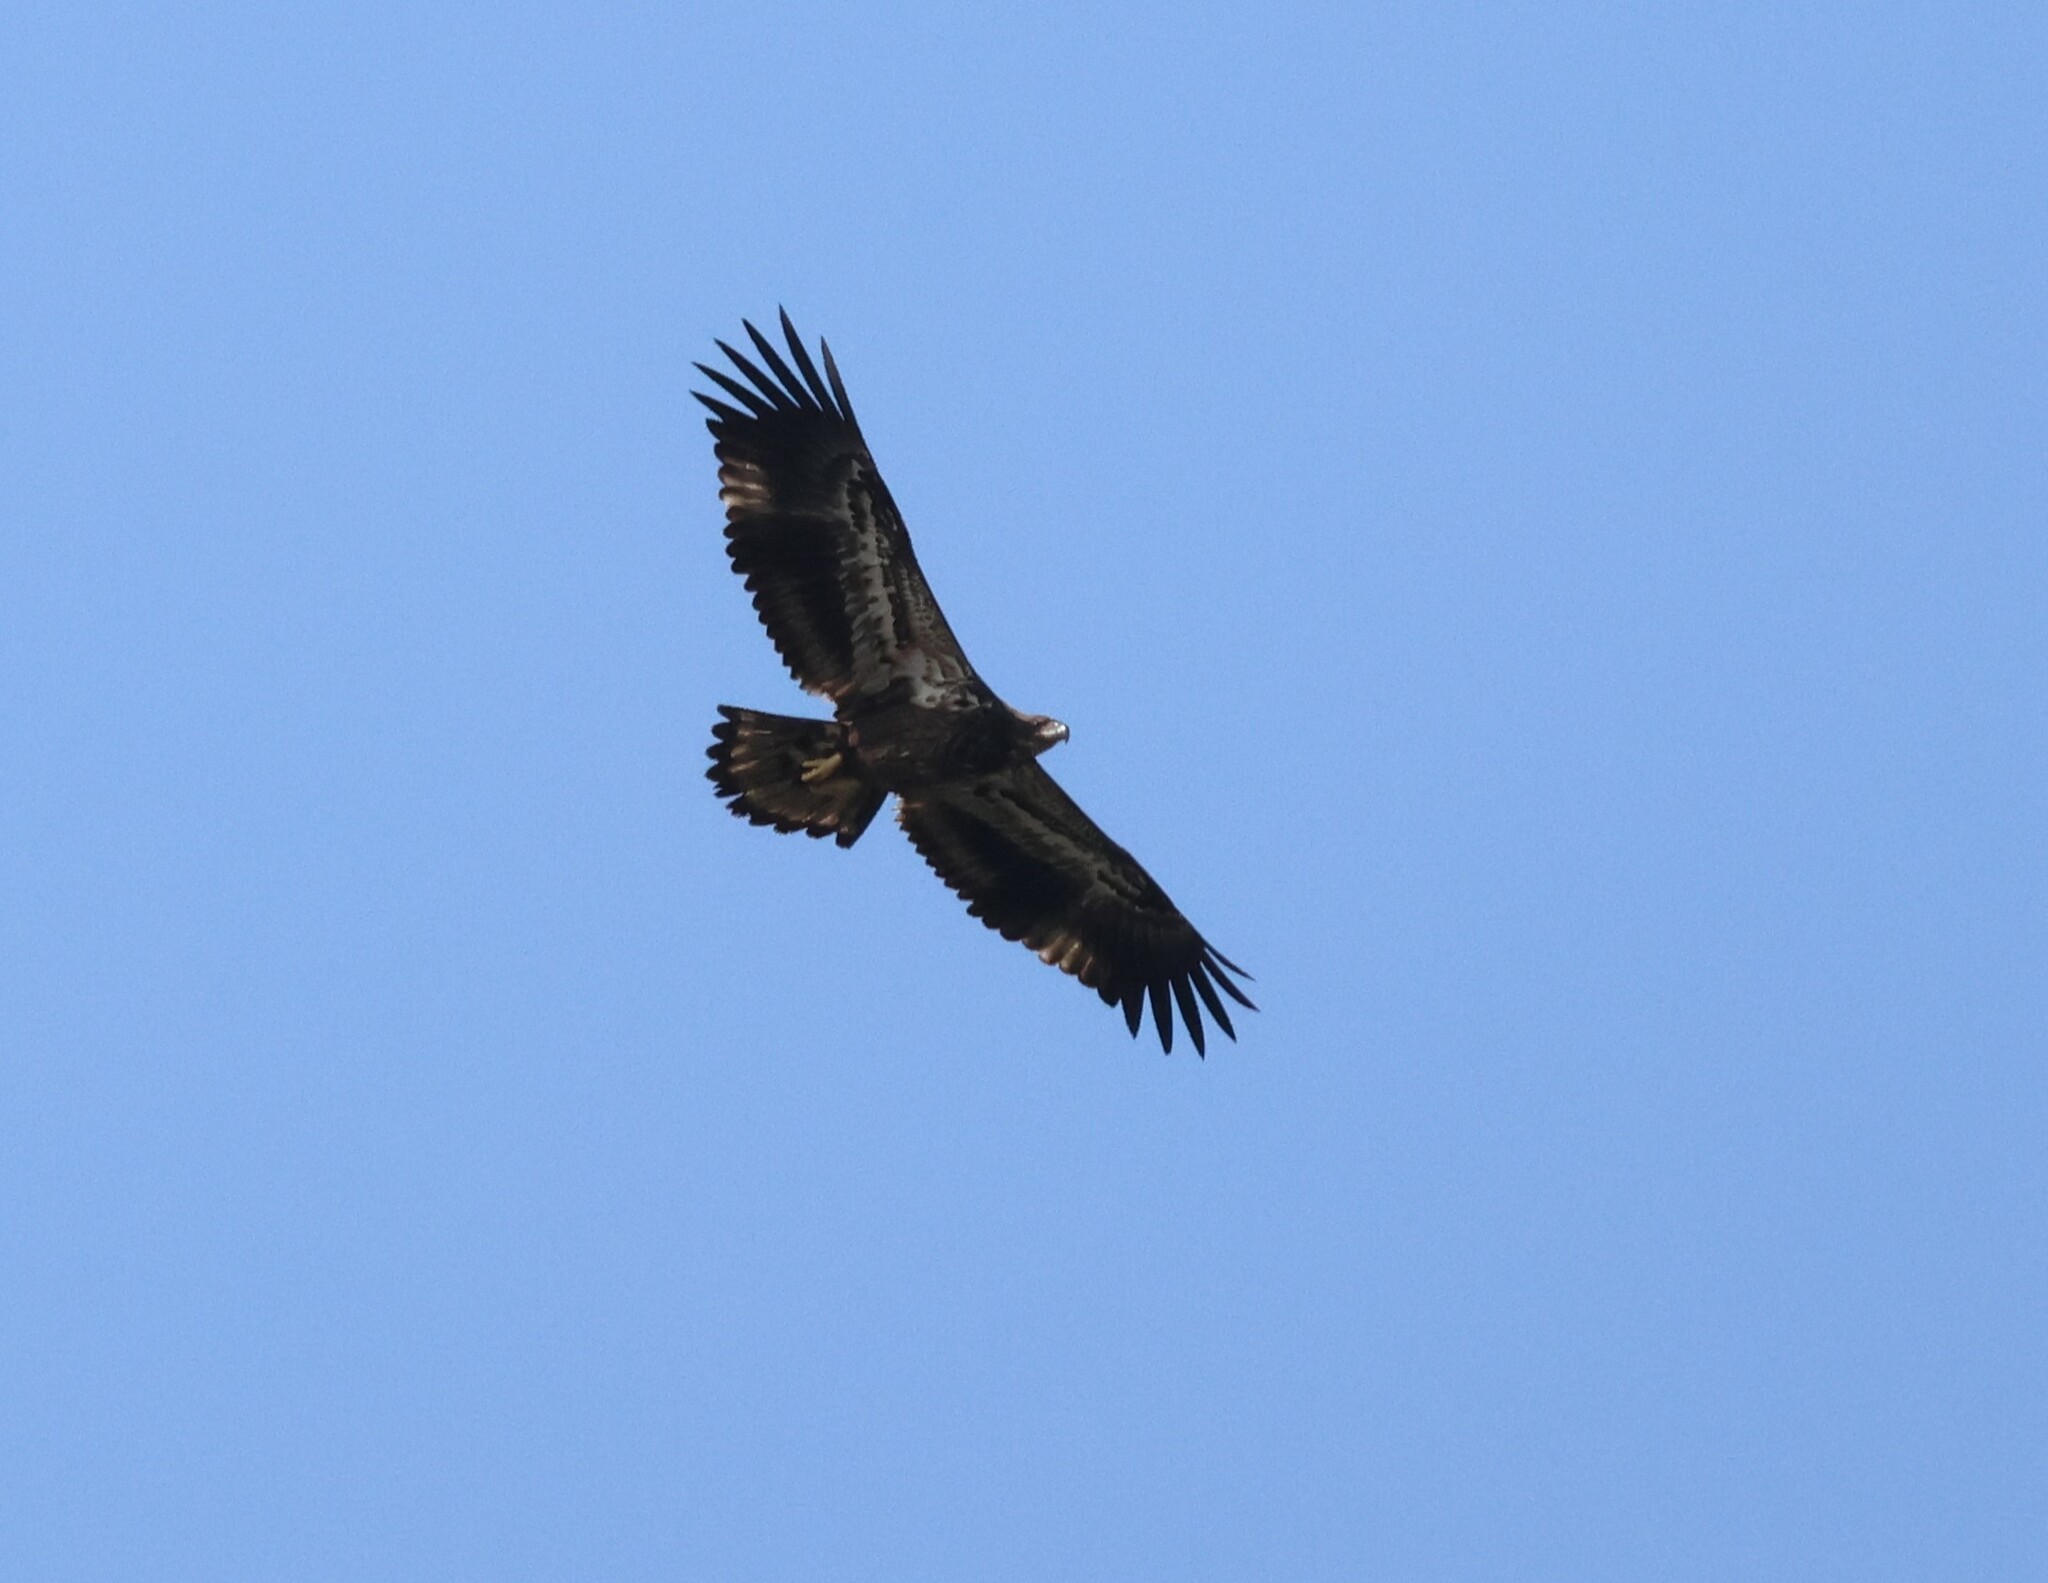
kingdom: Animalia
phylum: Chordata
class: Aves
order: Accipitriformes
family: Accipitridae
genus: Haliaeetus
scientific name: Haliaeetus leucocephalus
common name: Bald eagle
